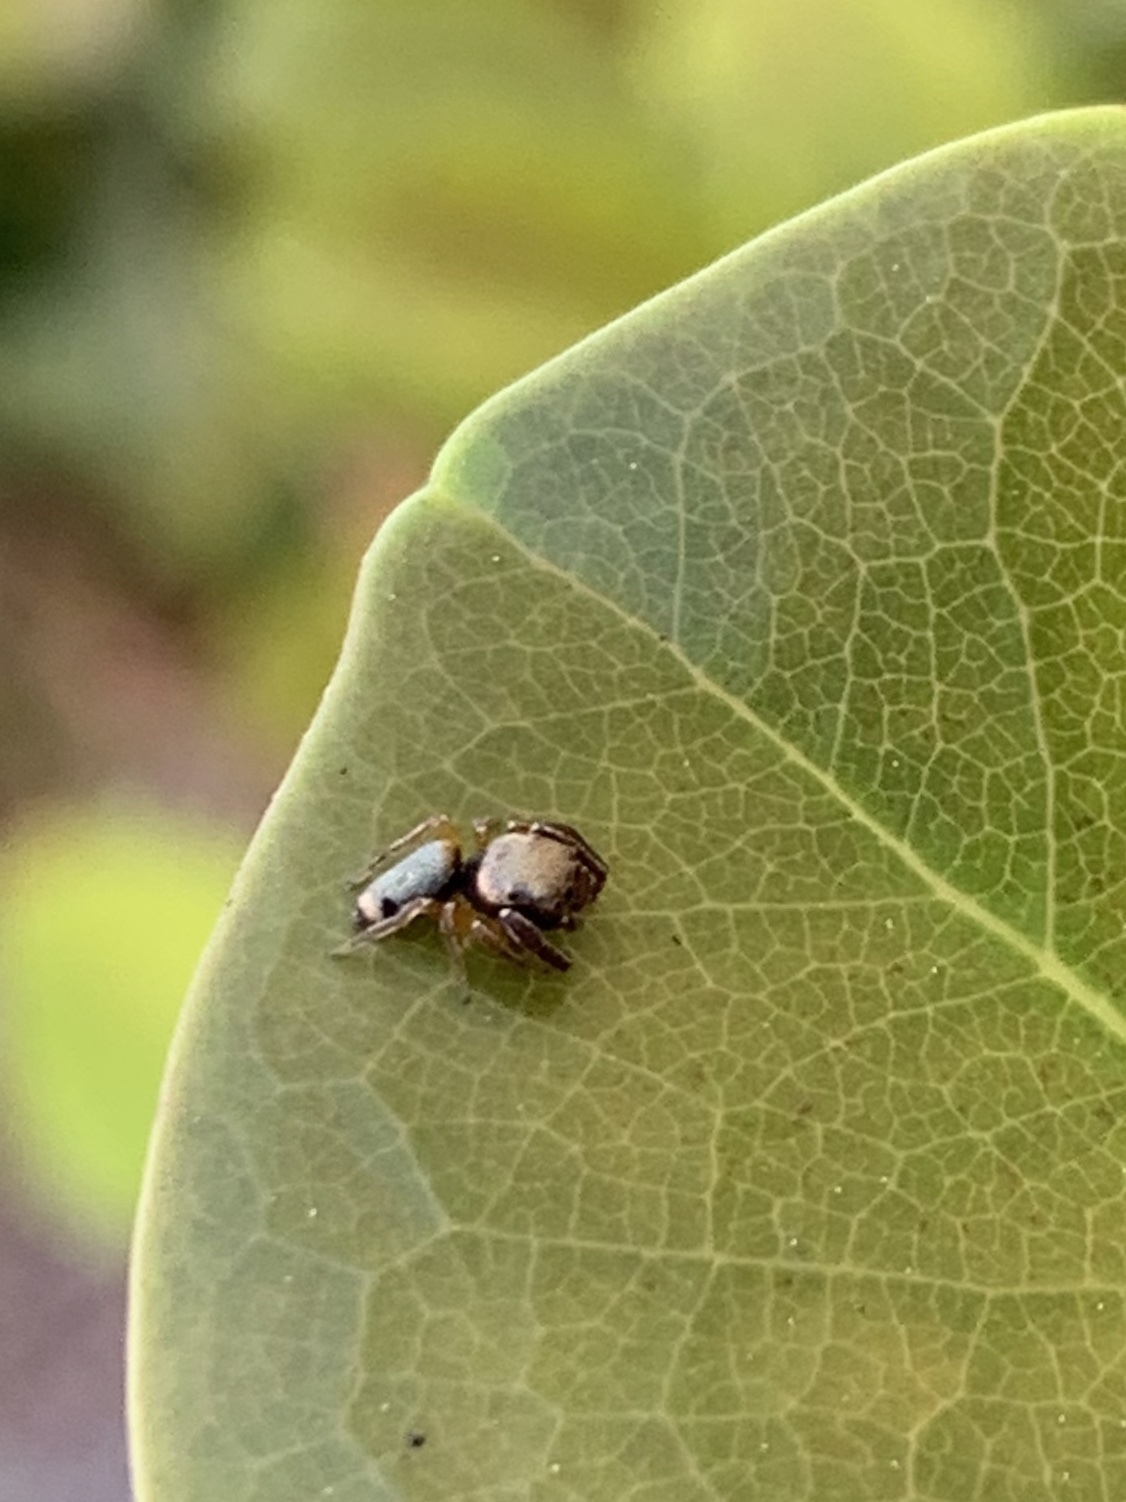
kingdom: Animalia
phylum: Arthropoda
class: Arachnida
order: Araneae
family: Salticidae
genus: Beata
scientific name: Beata wickhami
